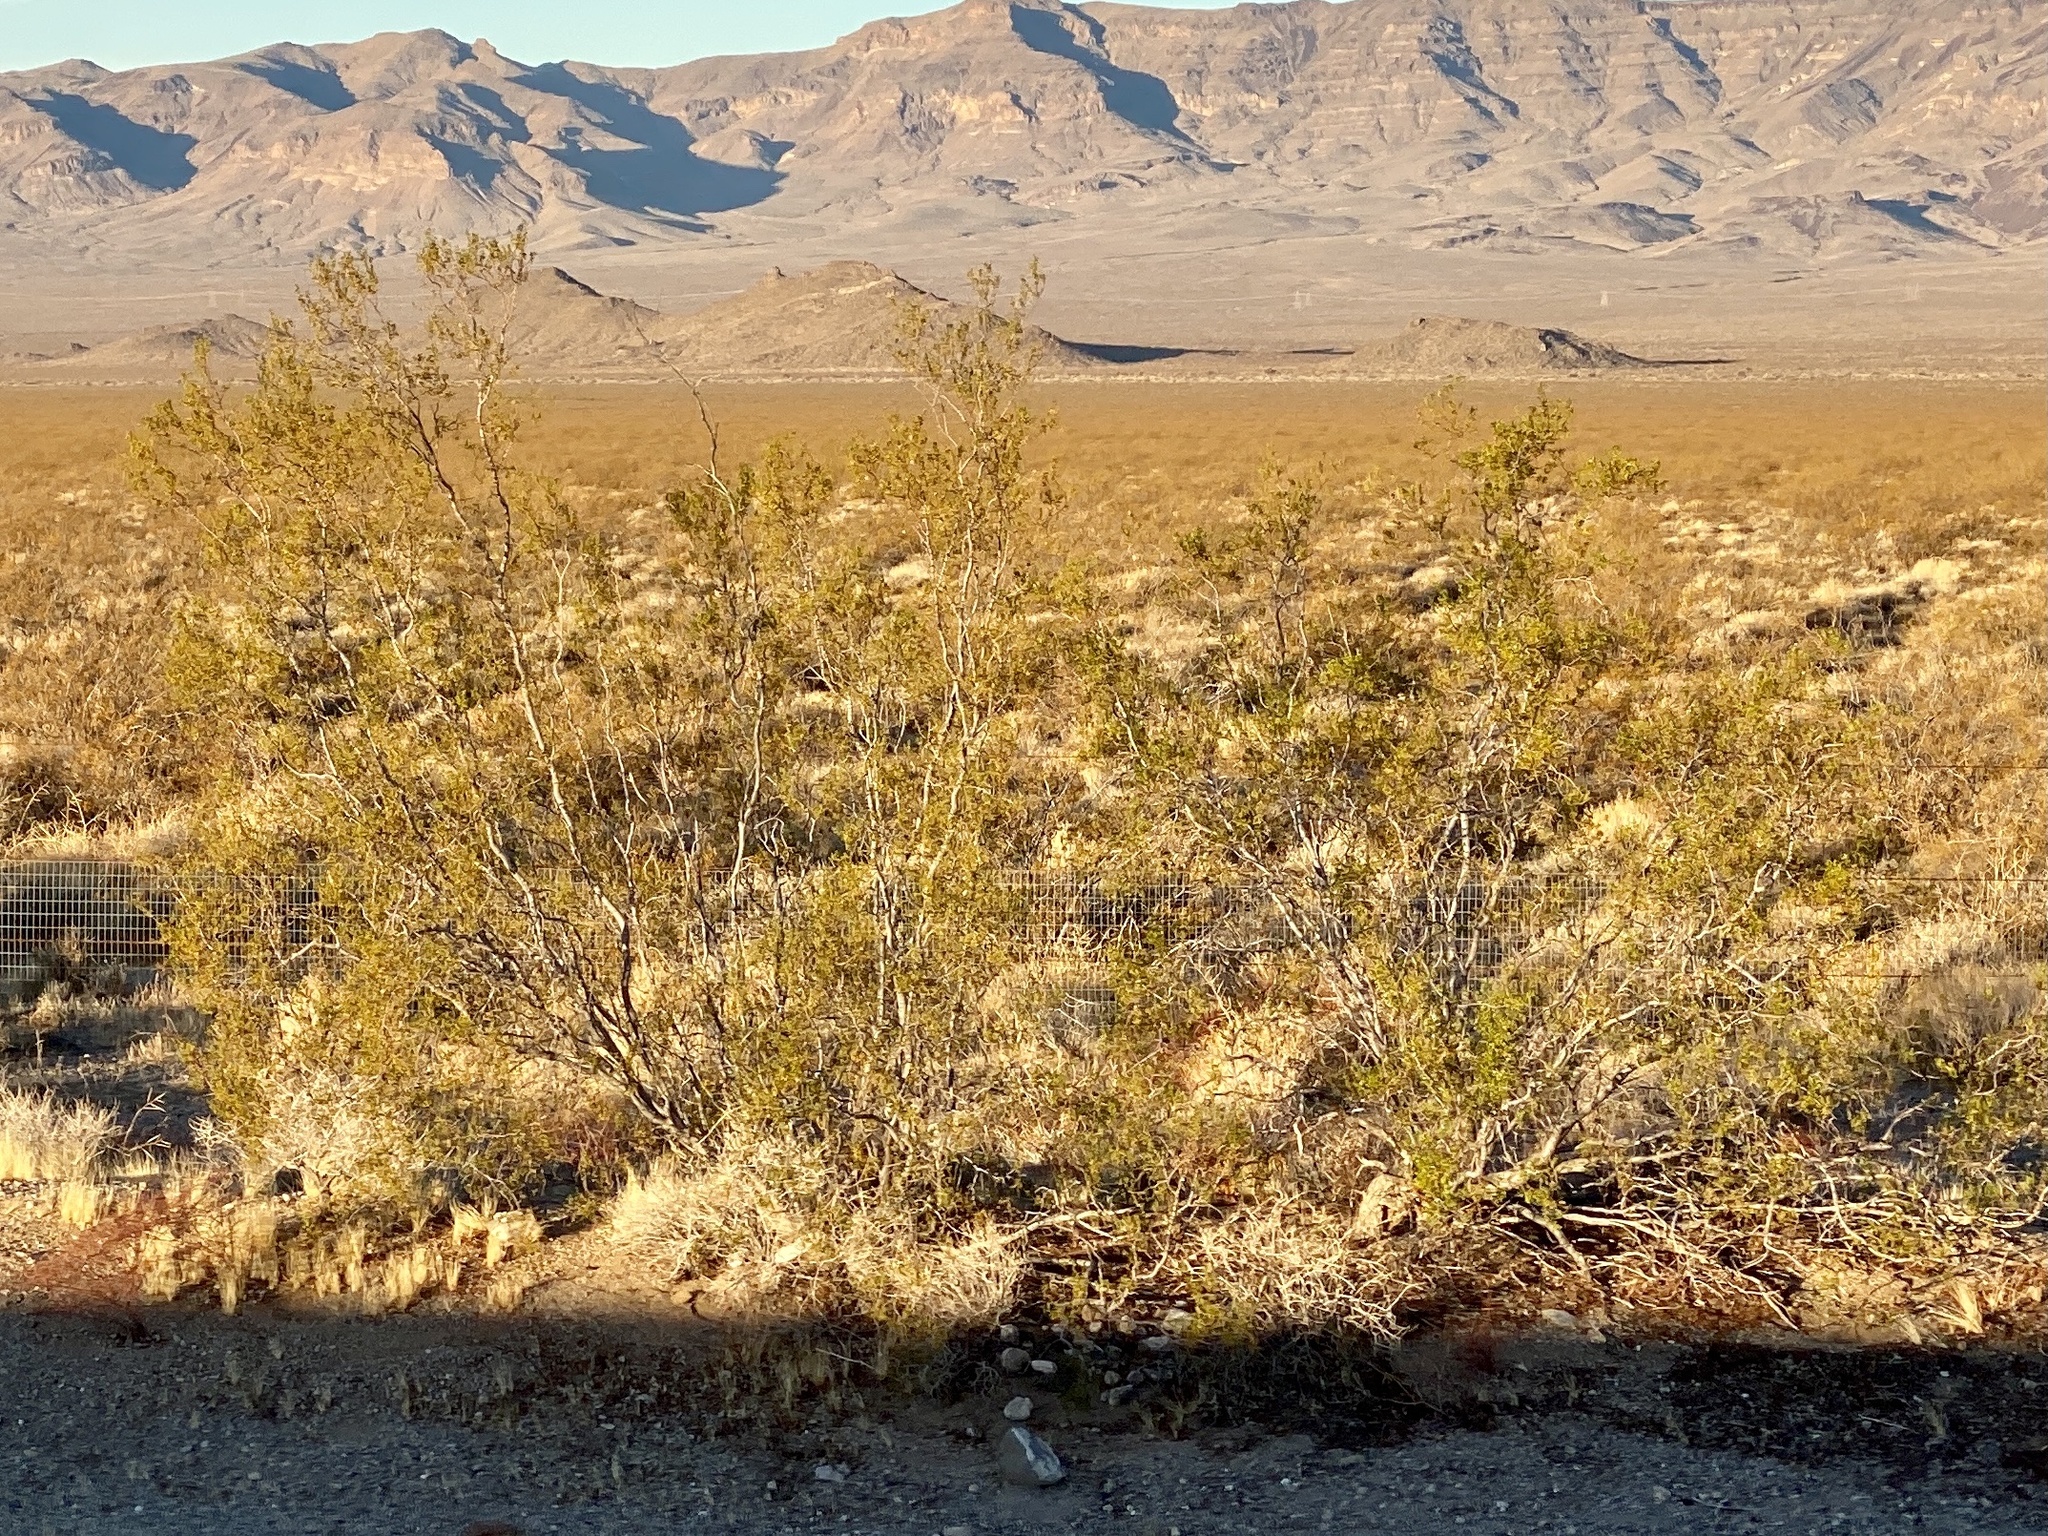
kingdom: Plantae
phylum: Tracheophyta
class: Magnoliopsida
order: Zygophyllales
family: Zygophyllaceae
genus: Larrea
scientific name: Larrea tridentata
